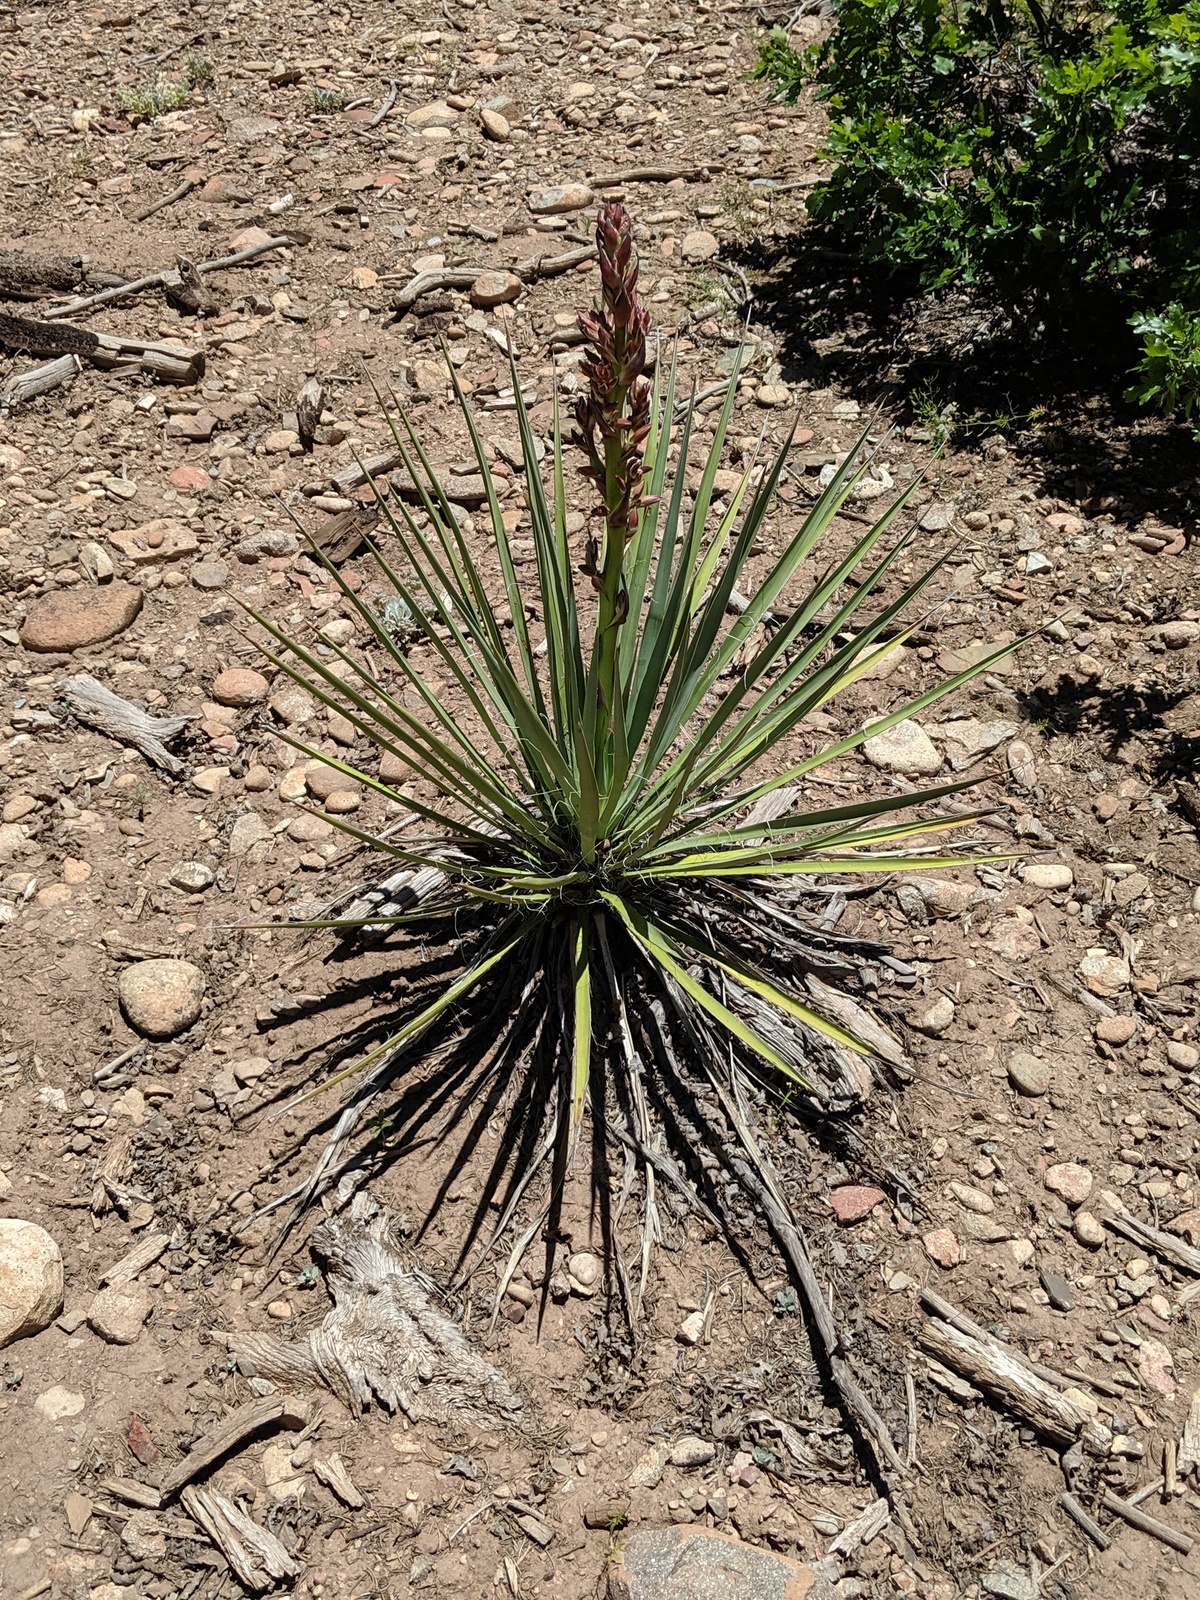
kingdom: Plantae
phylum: Tracheophyta
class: Liliopsida
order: Asparagales
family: Asparagaceae
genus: Yucca
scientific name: Yucca angustissima
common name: Narrowleaf yucca
